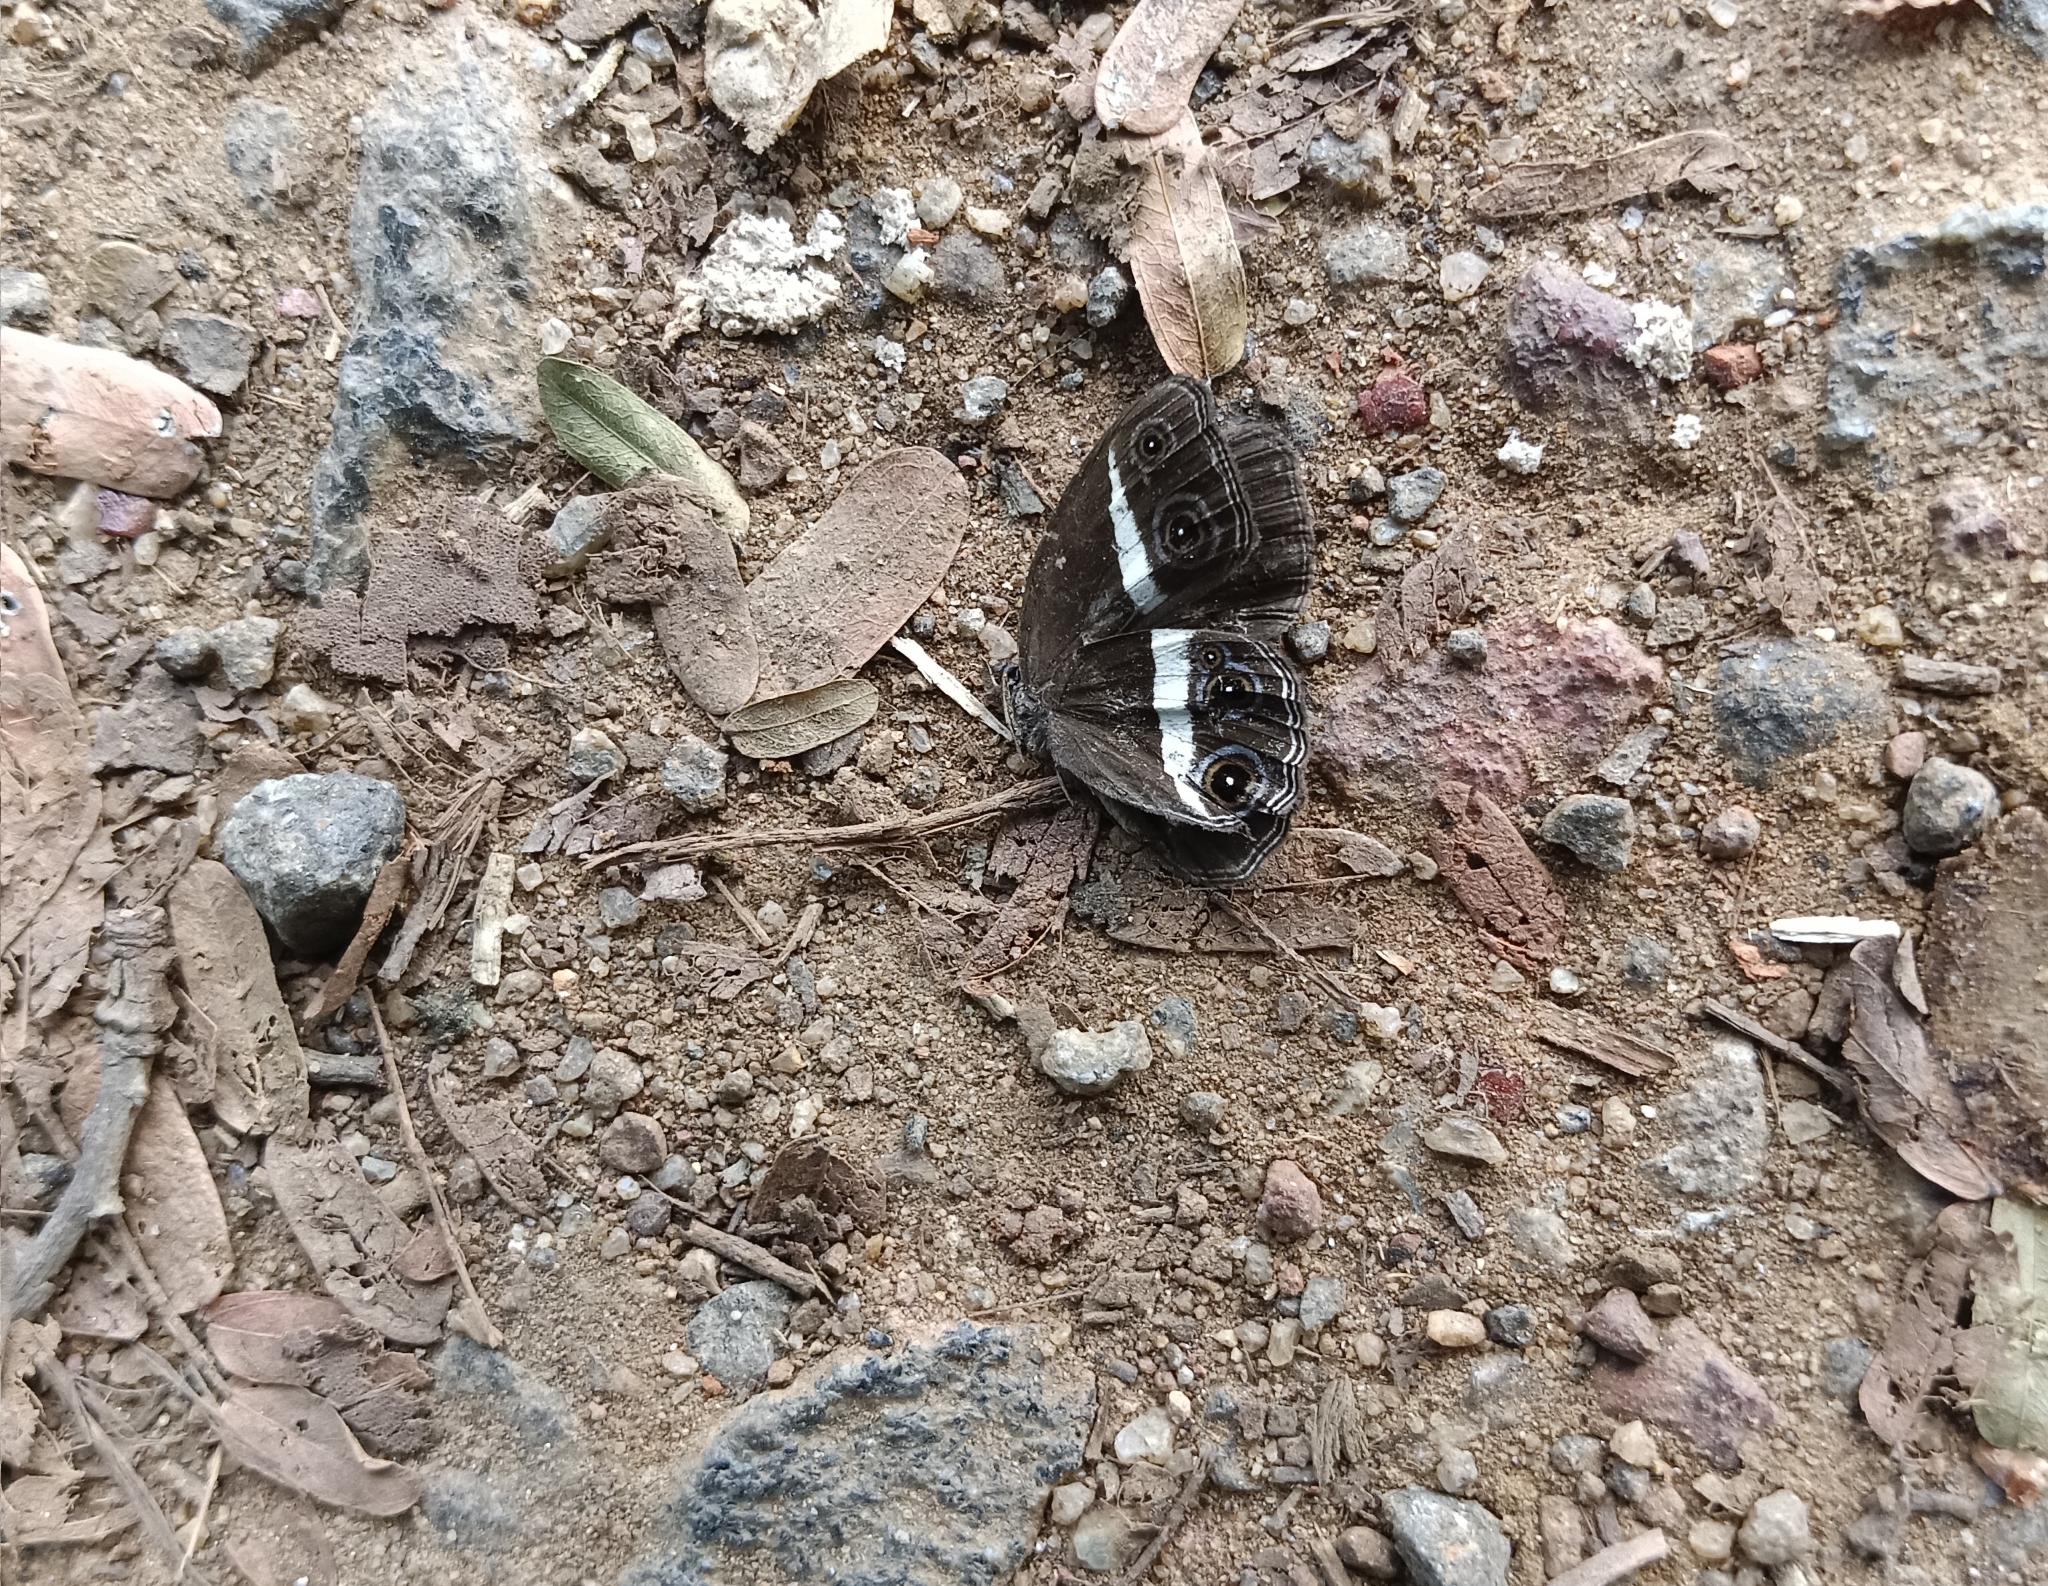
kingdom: Animalia
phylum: Arthropoda
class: Insecta
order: Lepidoptera
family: Nymphalidae
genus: Orsotriaena
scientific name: Orsotriaena medus
